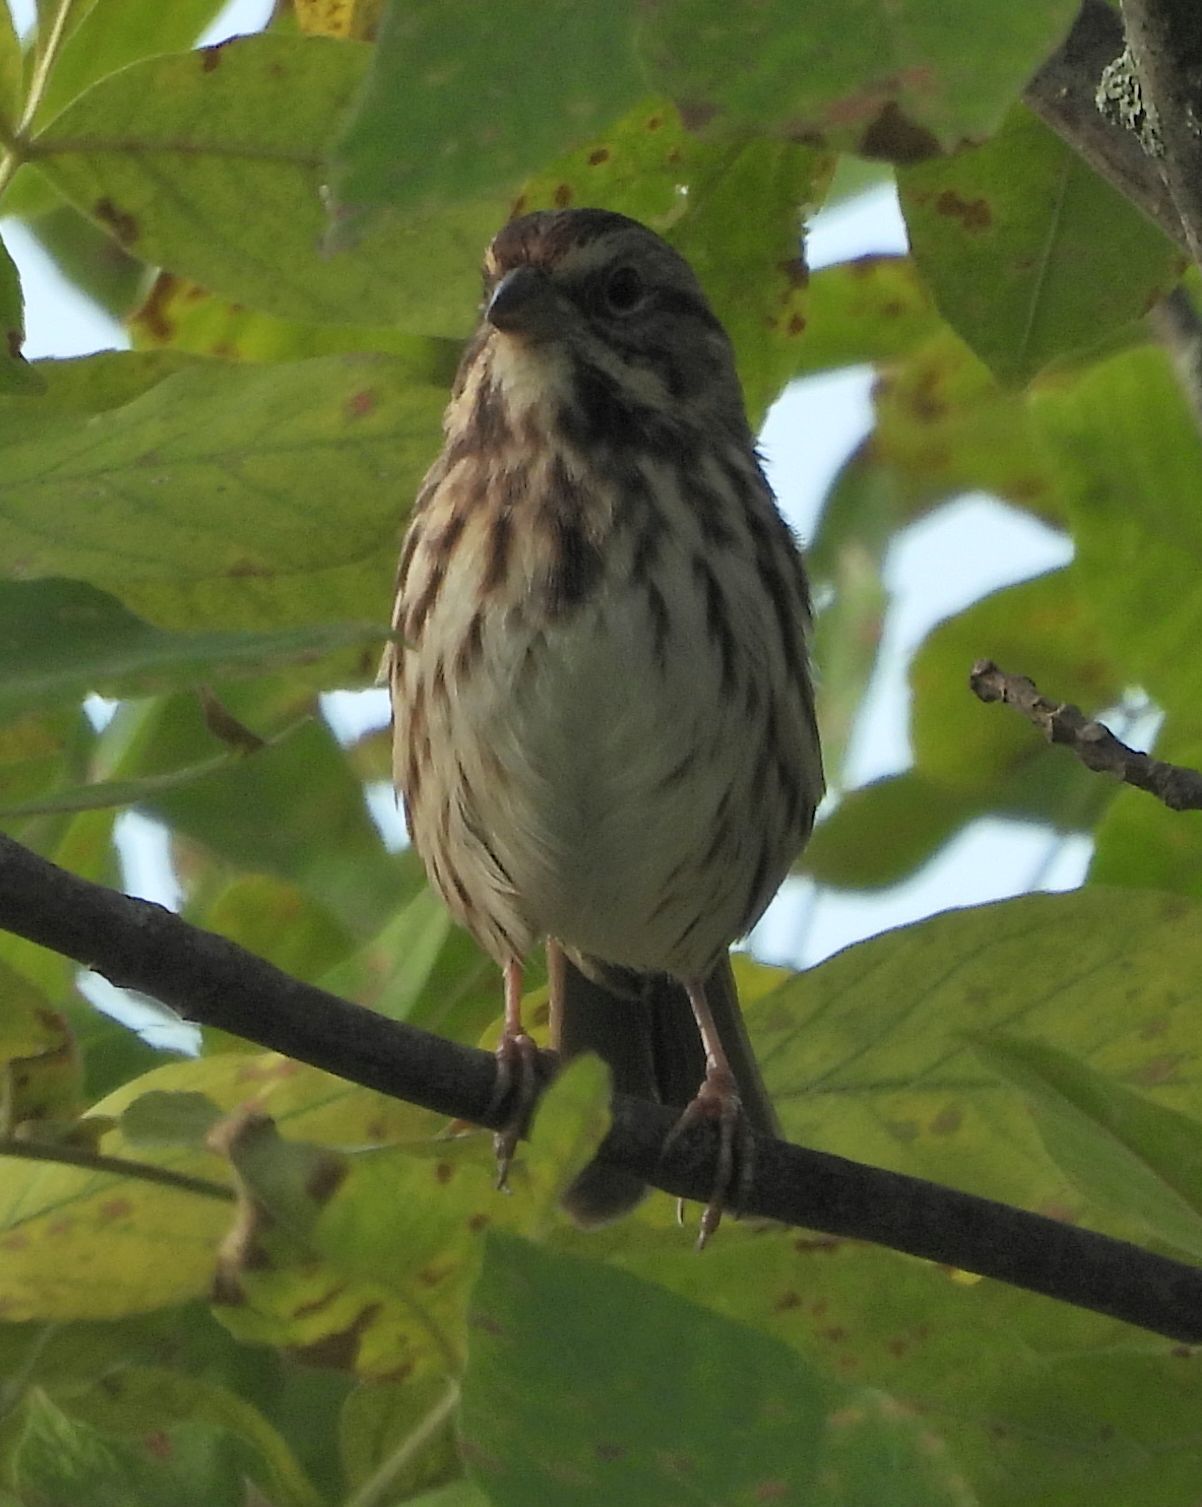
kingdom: Animalia
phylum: Chordata
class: Aves
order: Passeriformes
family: Passerellidae
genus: Melospiza
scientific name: Melospiza melodia
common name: Song sparrow
